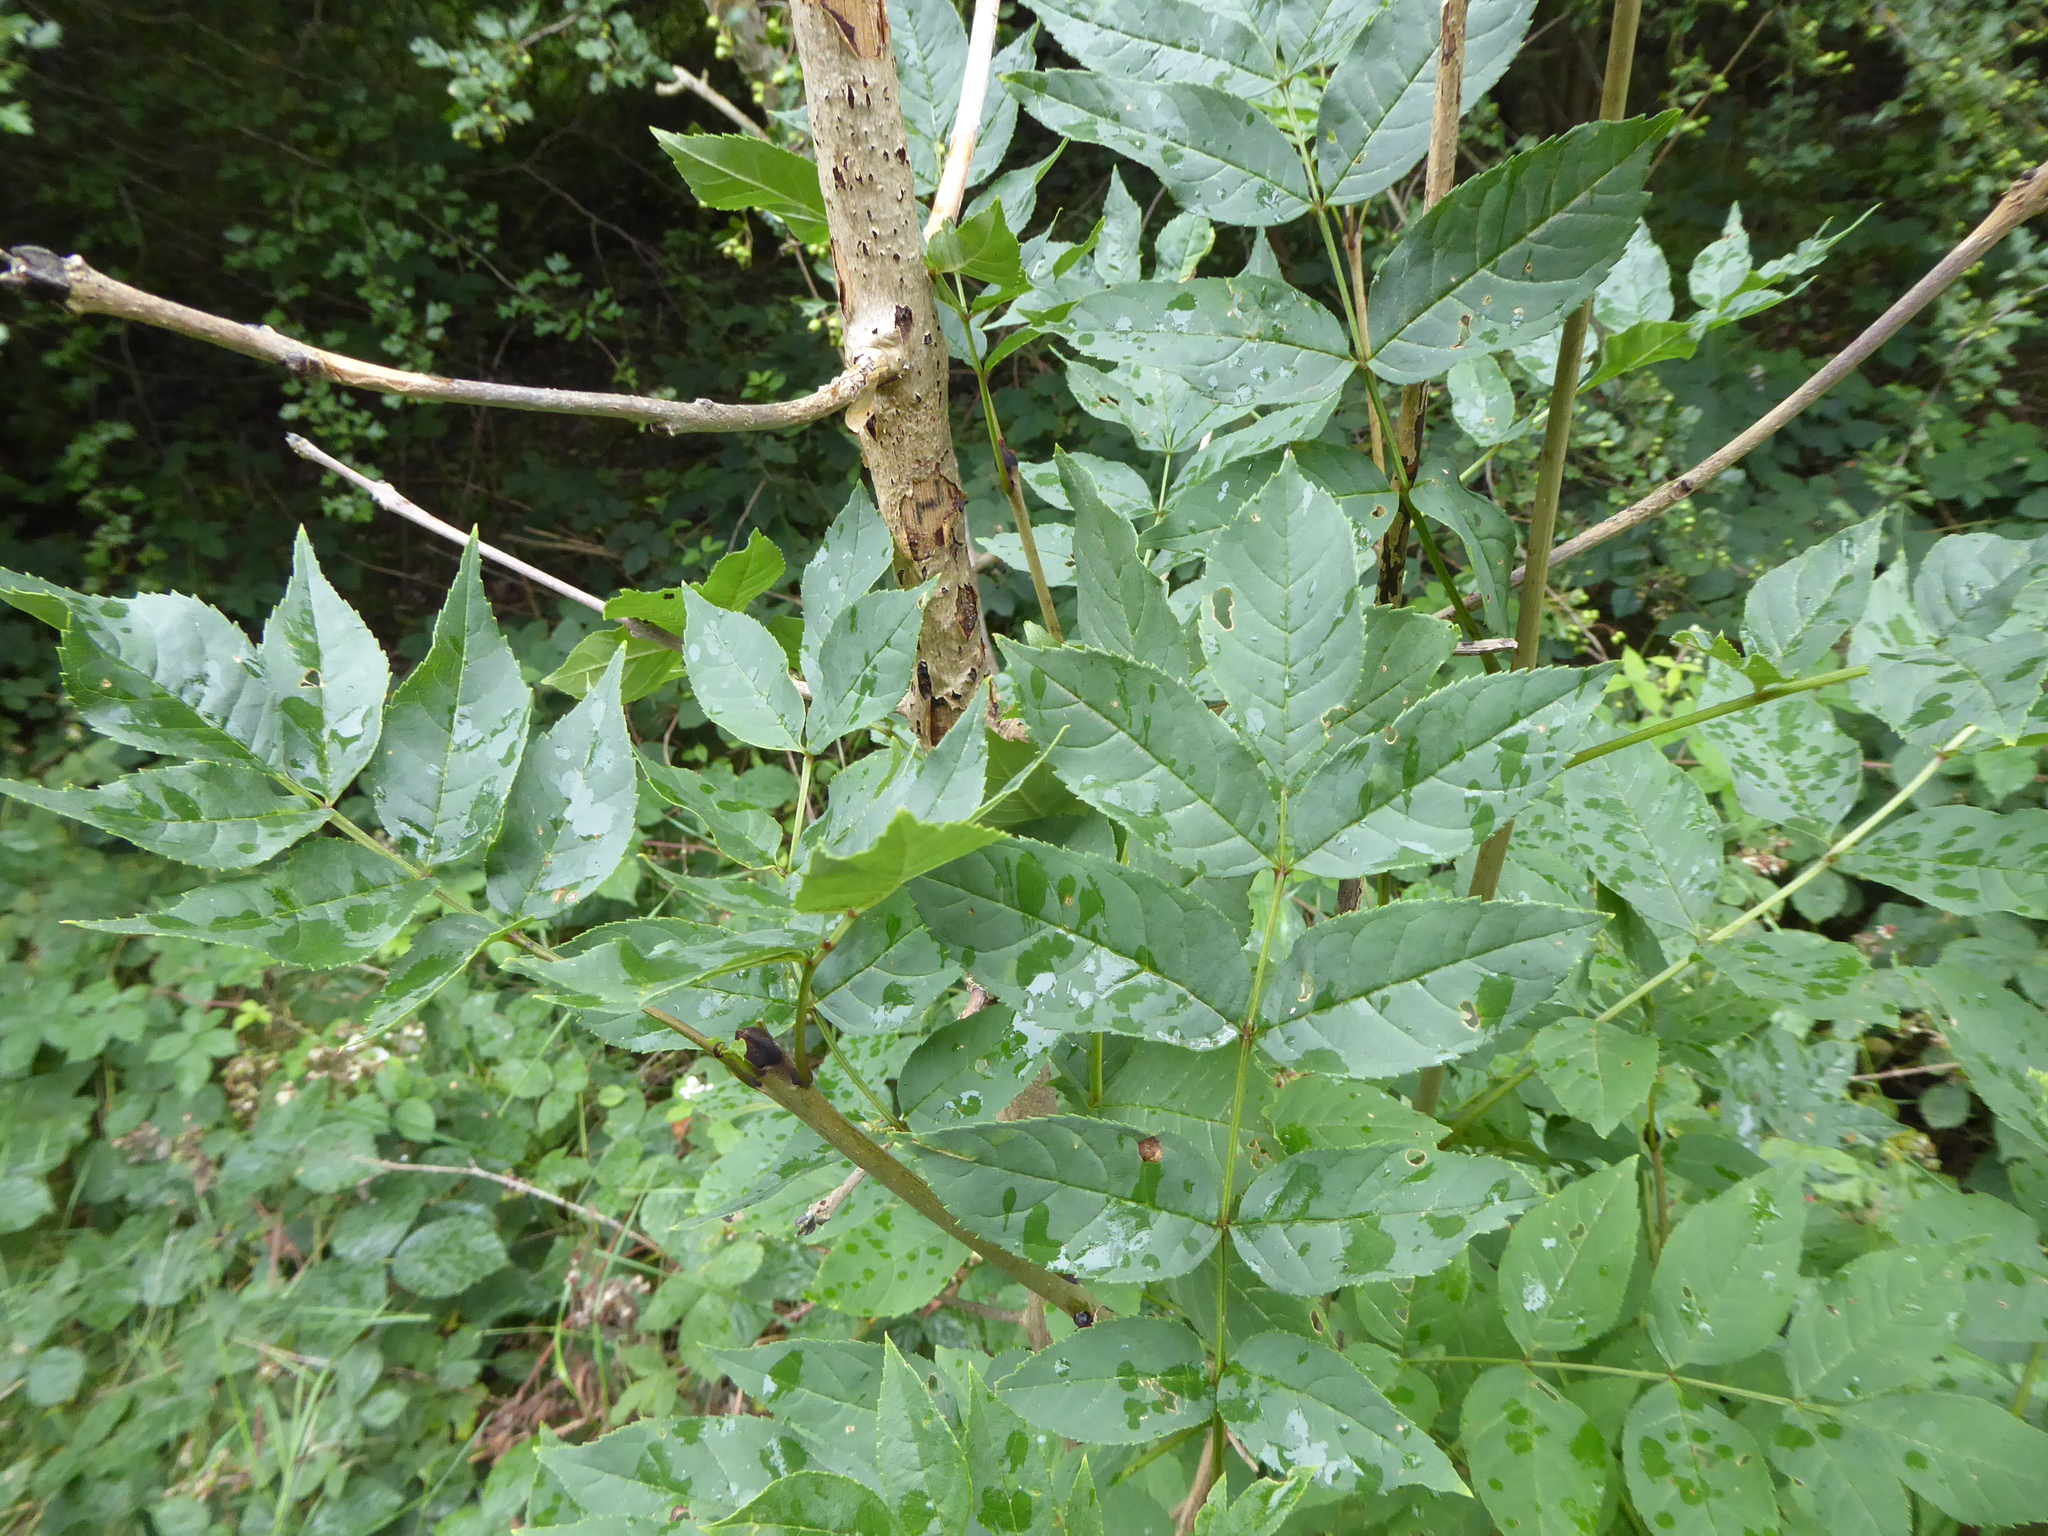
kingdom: Plantae
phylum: Tracheophyta
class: Magnoliopsida
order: Lamiales
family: Oleaceae
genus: Fraxinus
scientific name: Fraxinus excelsior
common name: European ash
